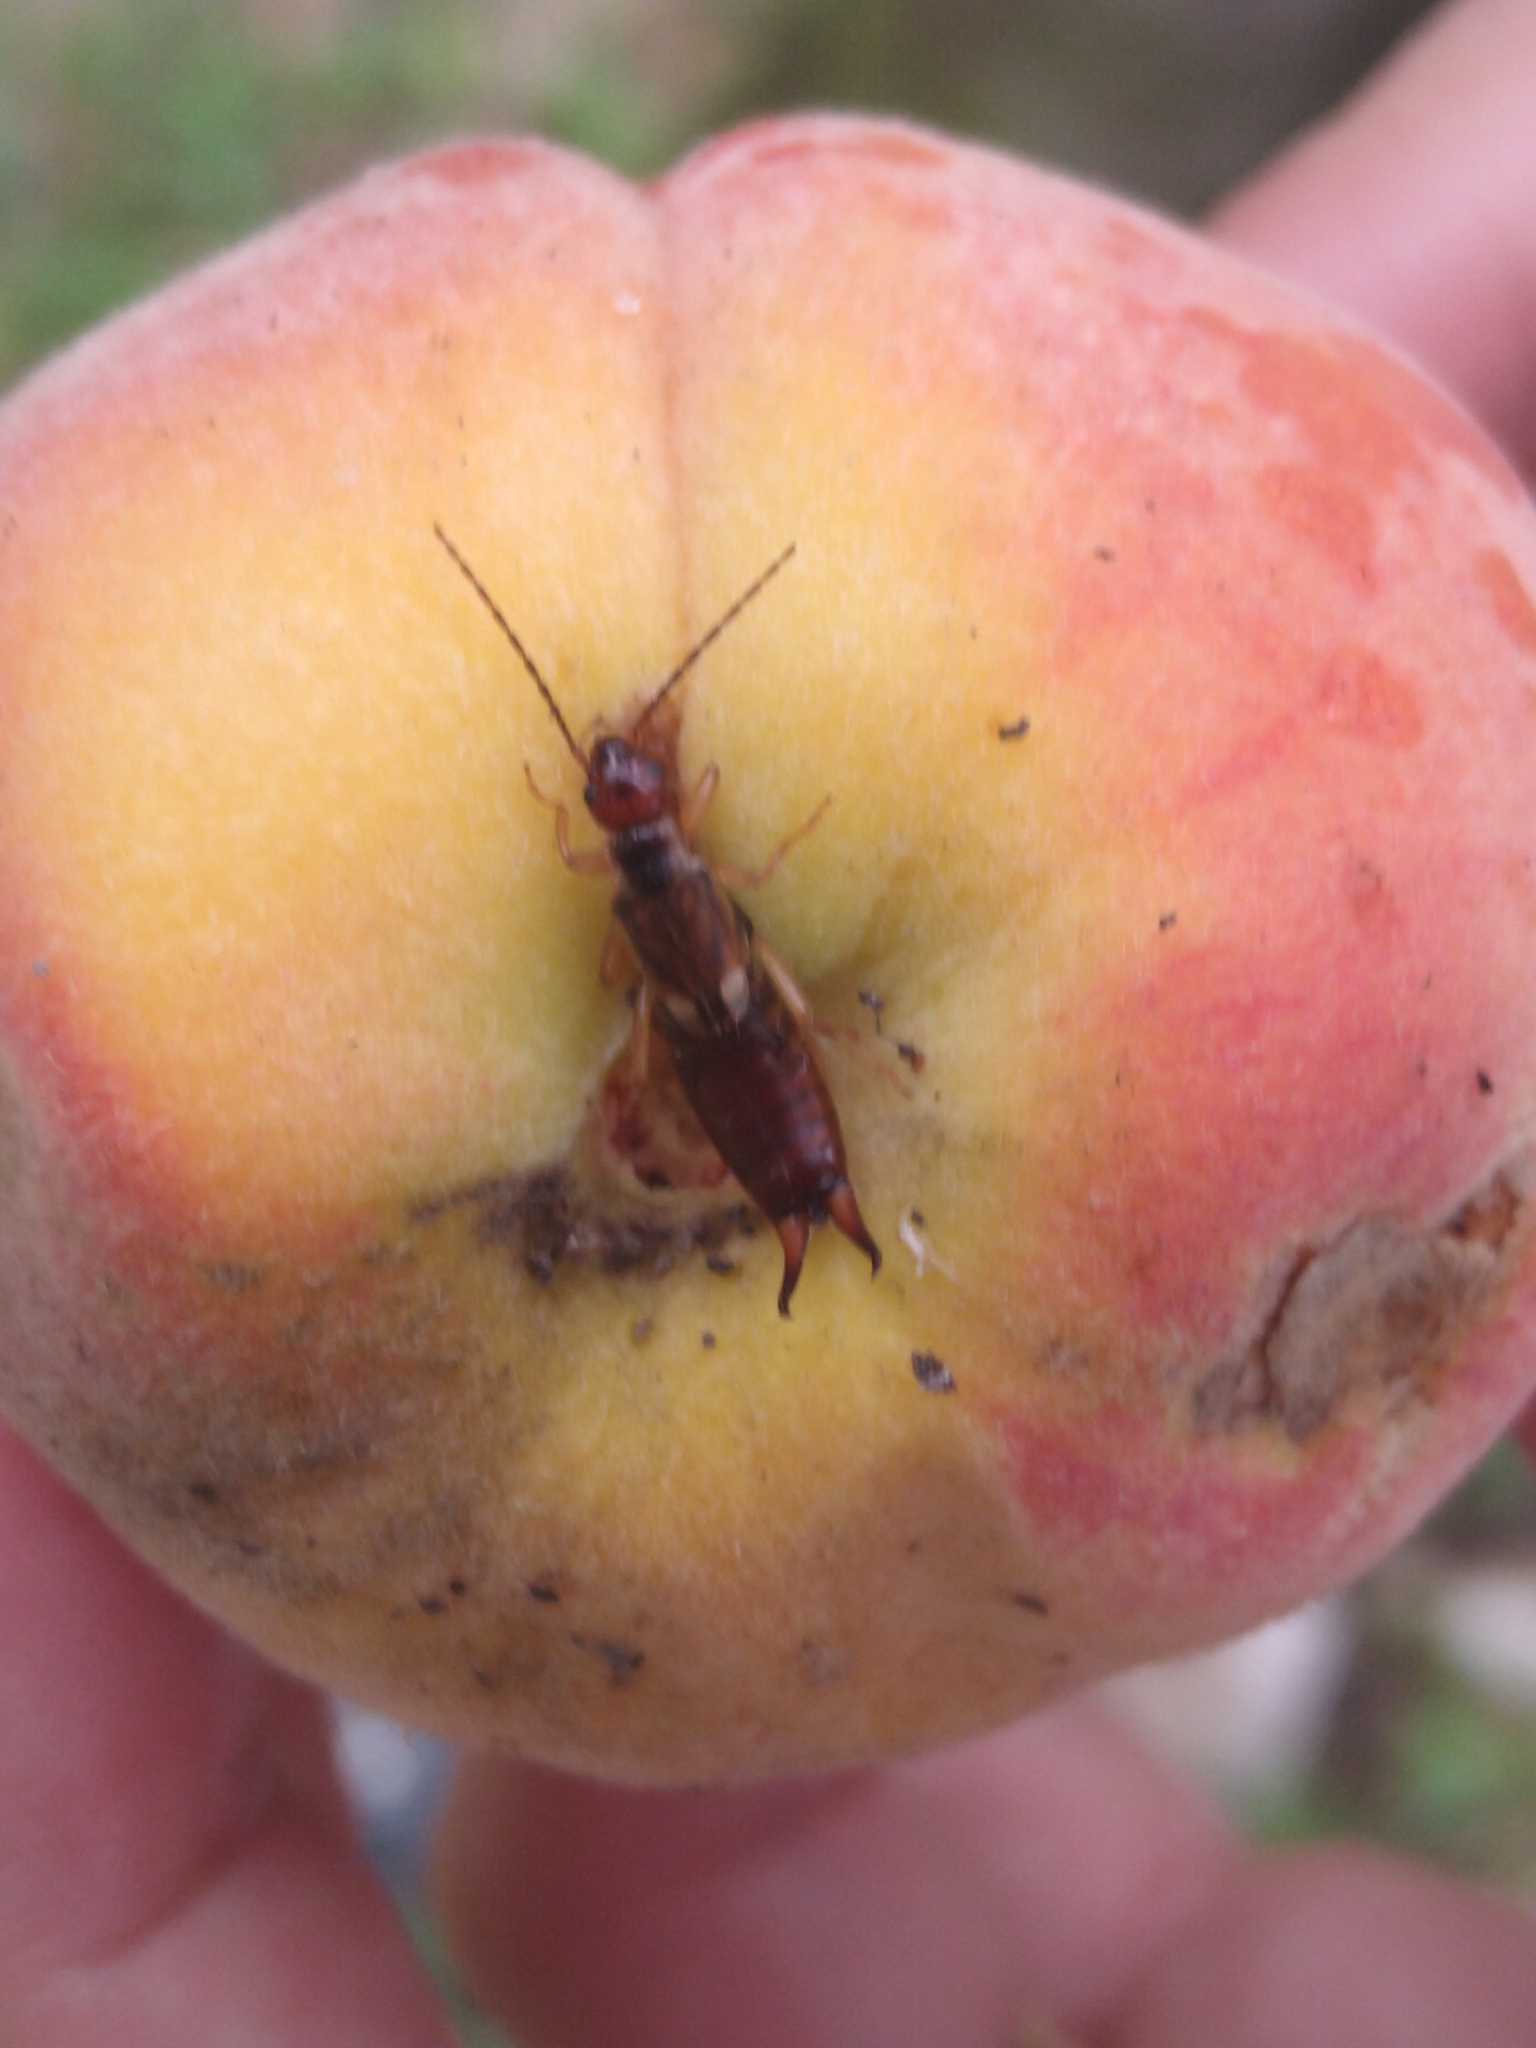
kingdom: Animalia
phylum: Arthropoda
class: Insecta
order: Dermaptera
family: Forficulidae
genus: Forficula
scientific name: Forficula
